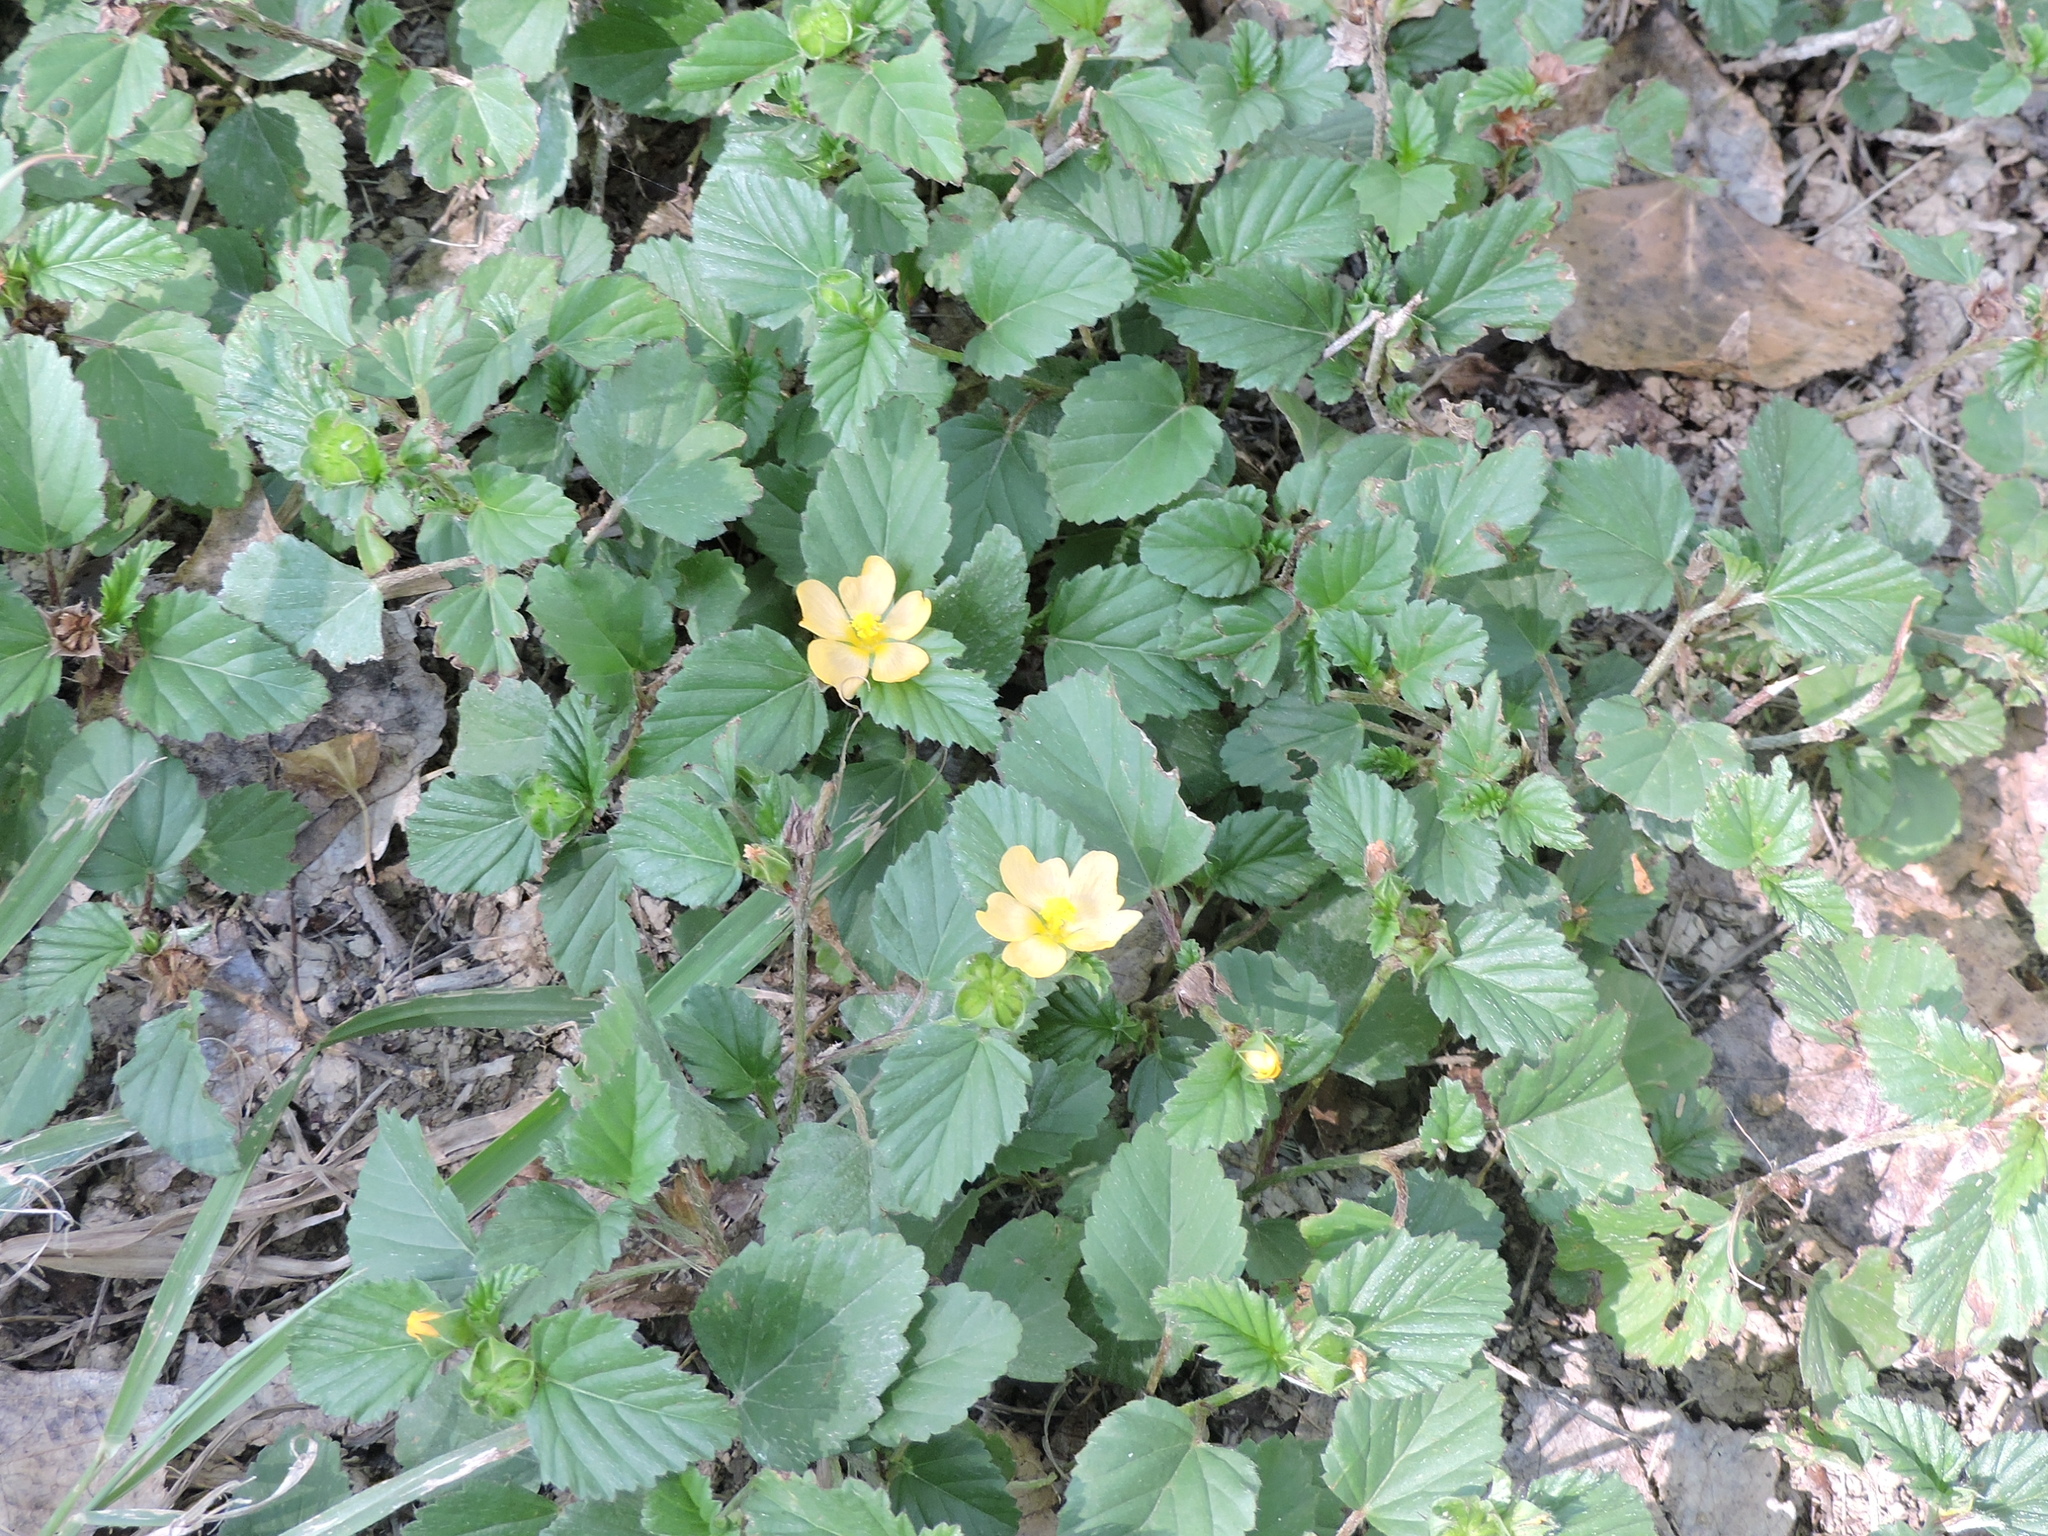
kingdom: Plantae
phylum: Tracheophyta
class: Magnoliopsida
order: Malvales
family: Malvaceae
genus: Malvastrum
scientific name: Malvastrum coromandelianum
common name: Threelobe false mallow
